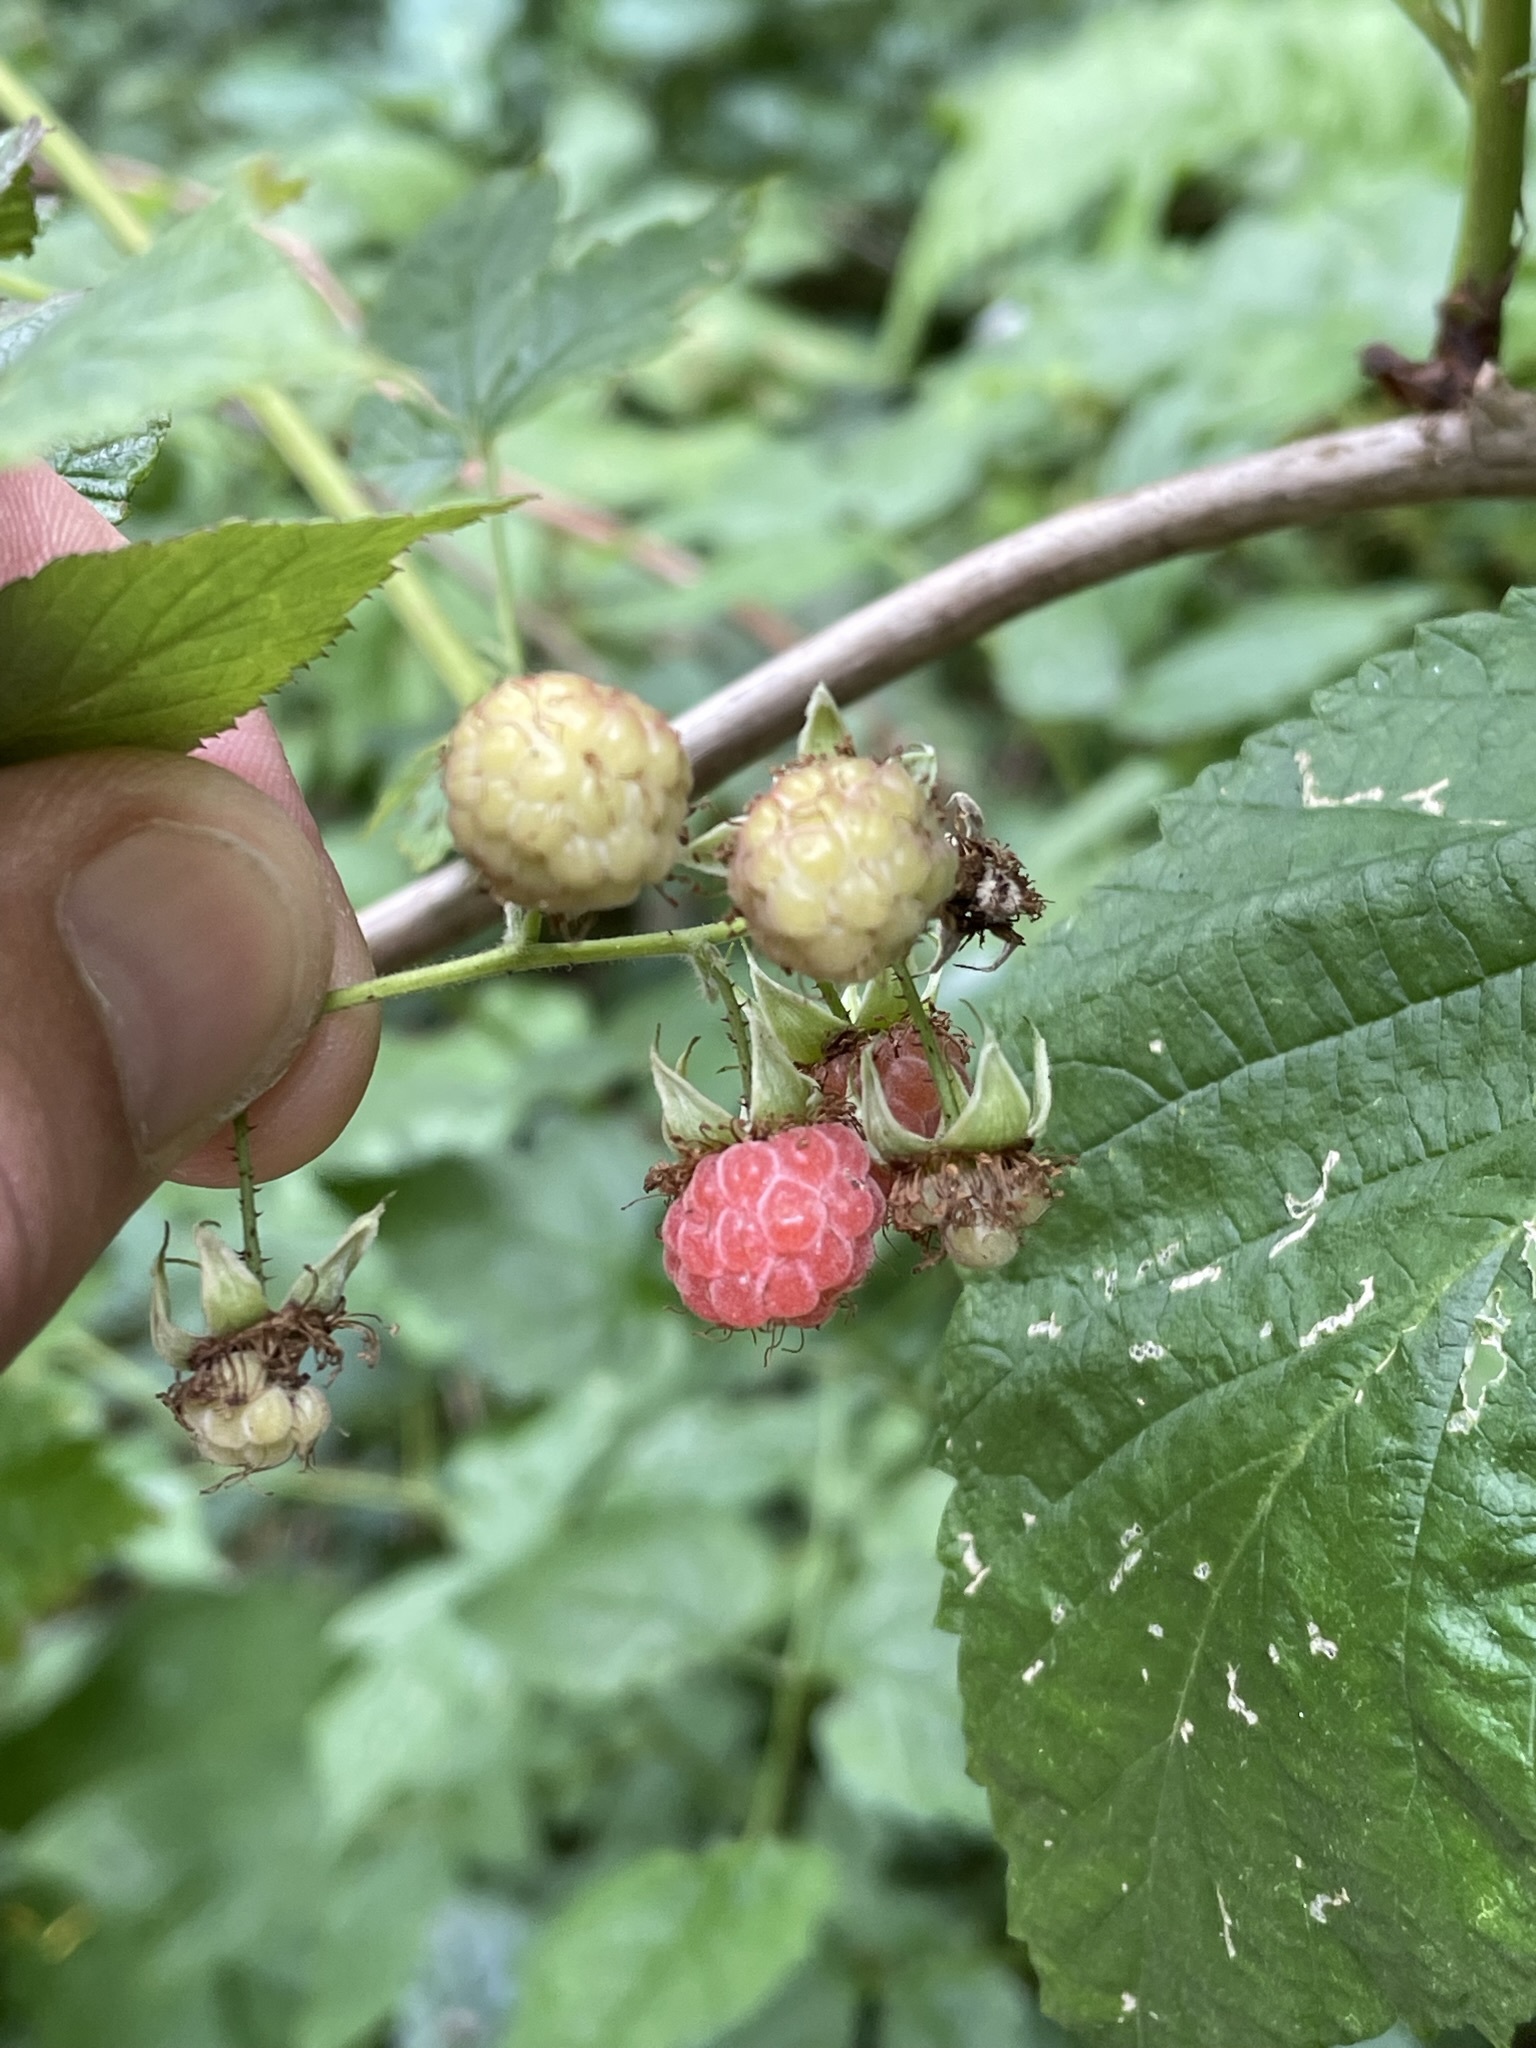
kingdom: Plantae
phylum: Tracheophyta
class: Magnoliopsida
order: Rosales
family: Rosaceae
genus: Rubus
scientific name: Rubus idaeus
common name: Raspberry
